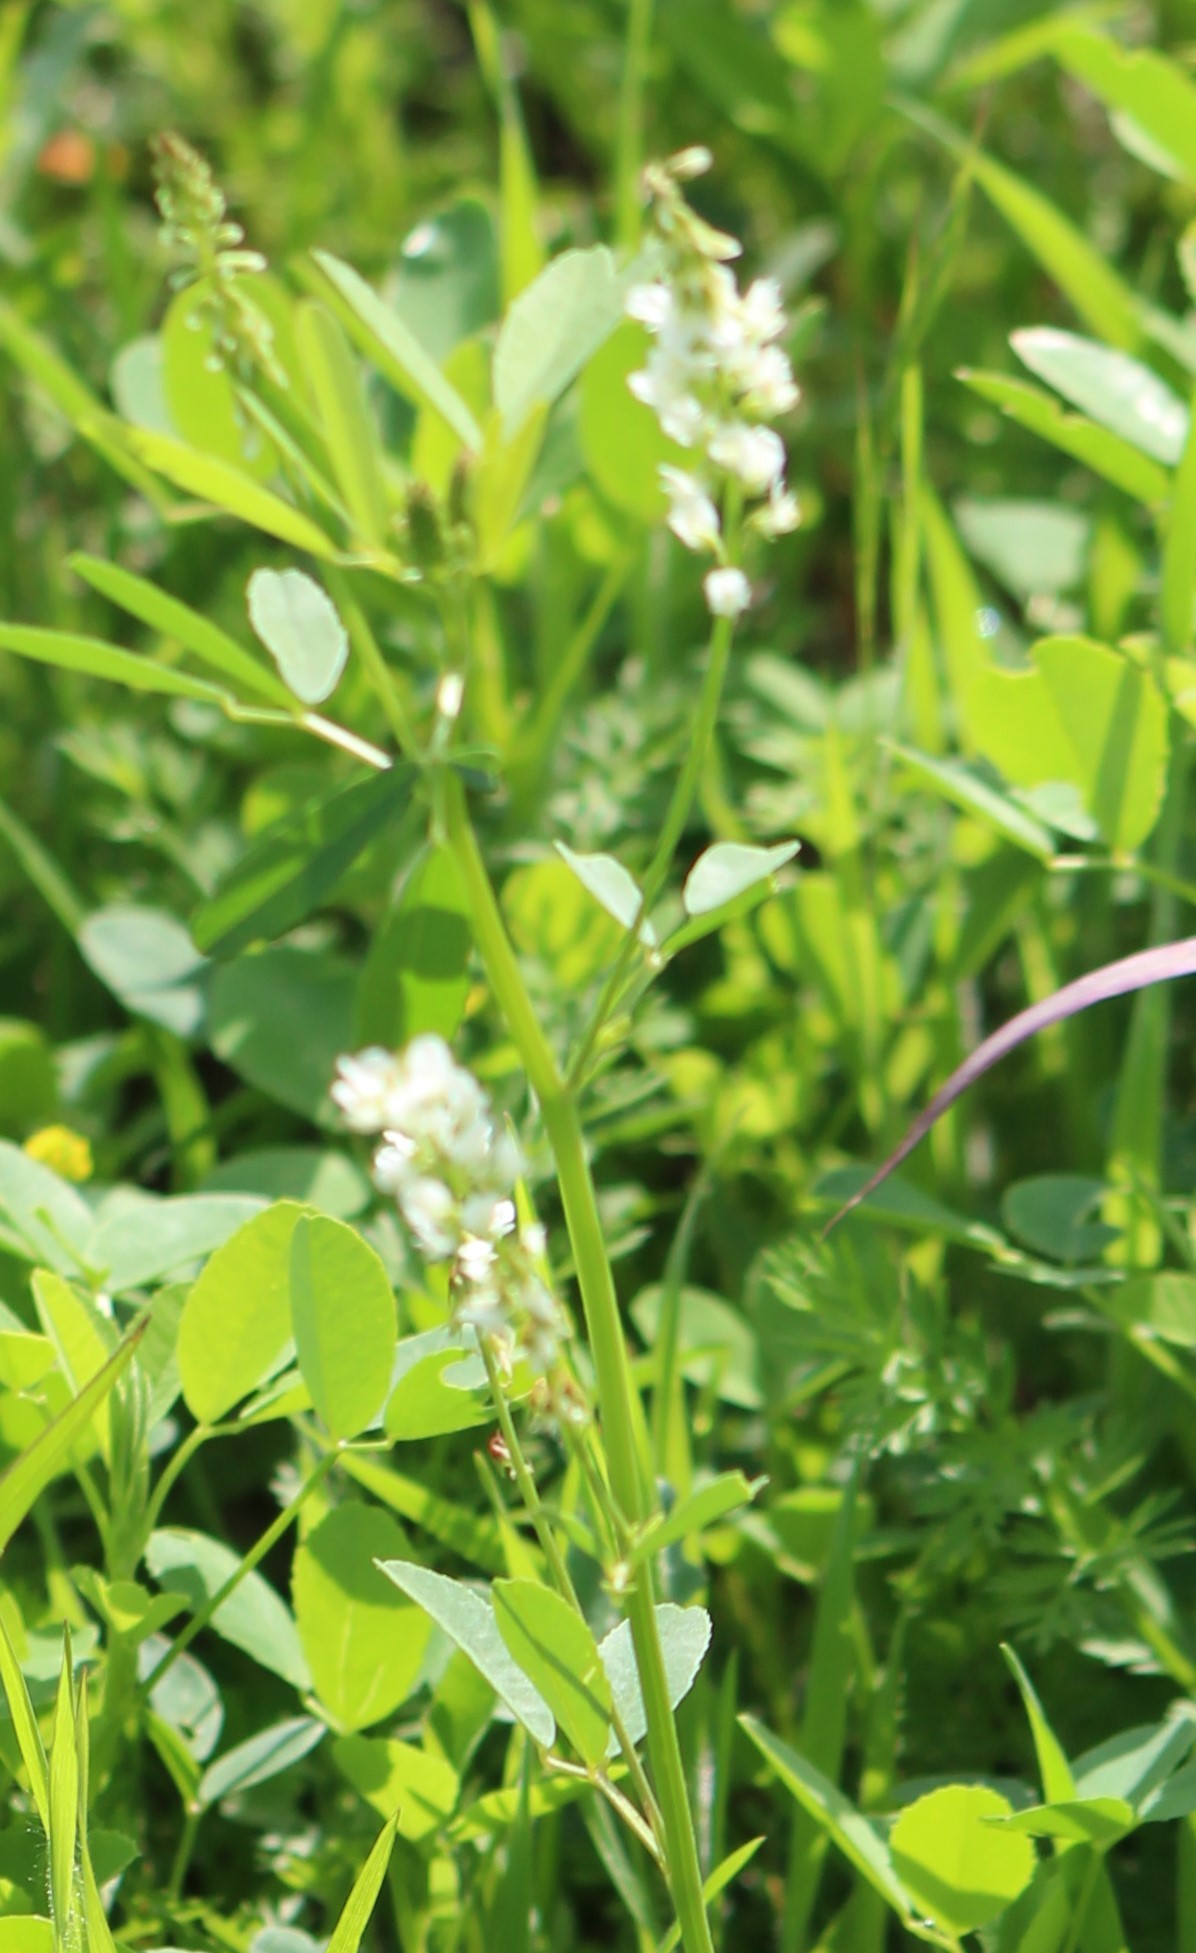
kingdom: Plantae
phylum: Tracheophyta
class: Magnoliopsida
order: Fabales
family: Fabaceae
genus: Melilotus
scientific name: Melilotus albus
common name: White melilot
